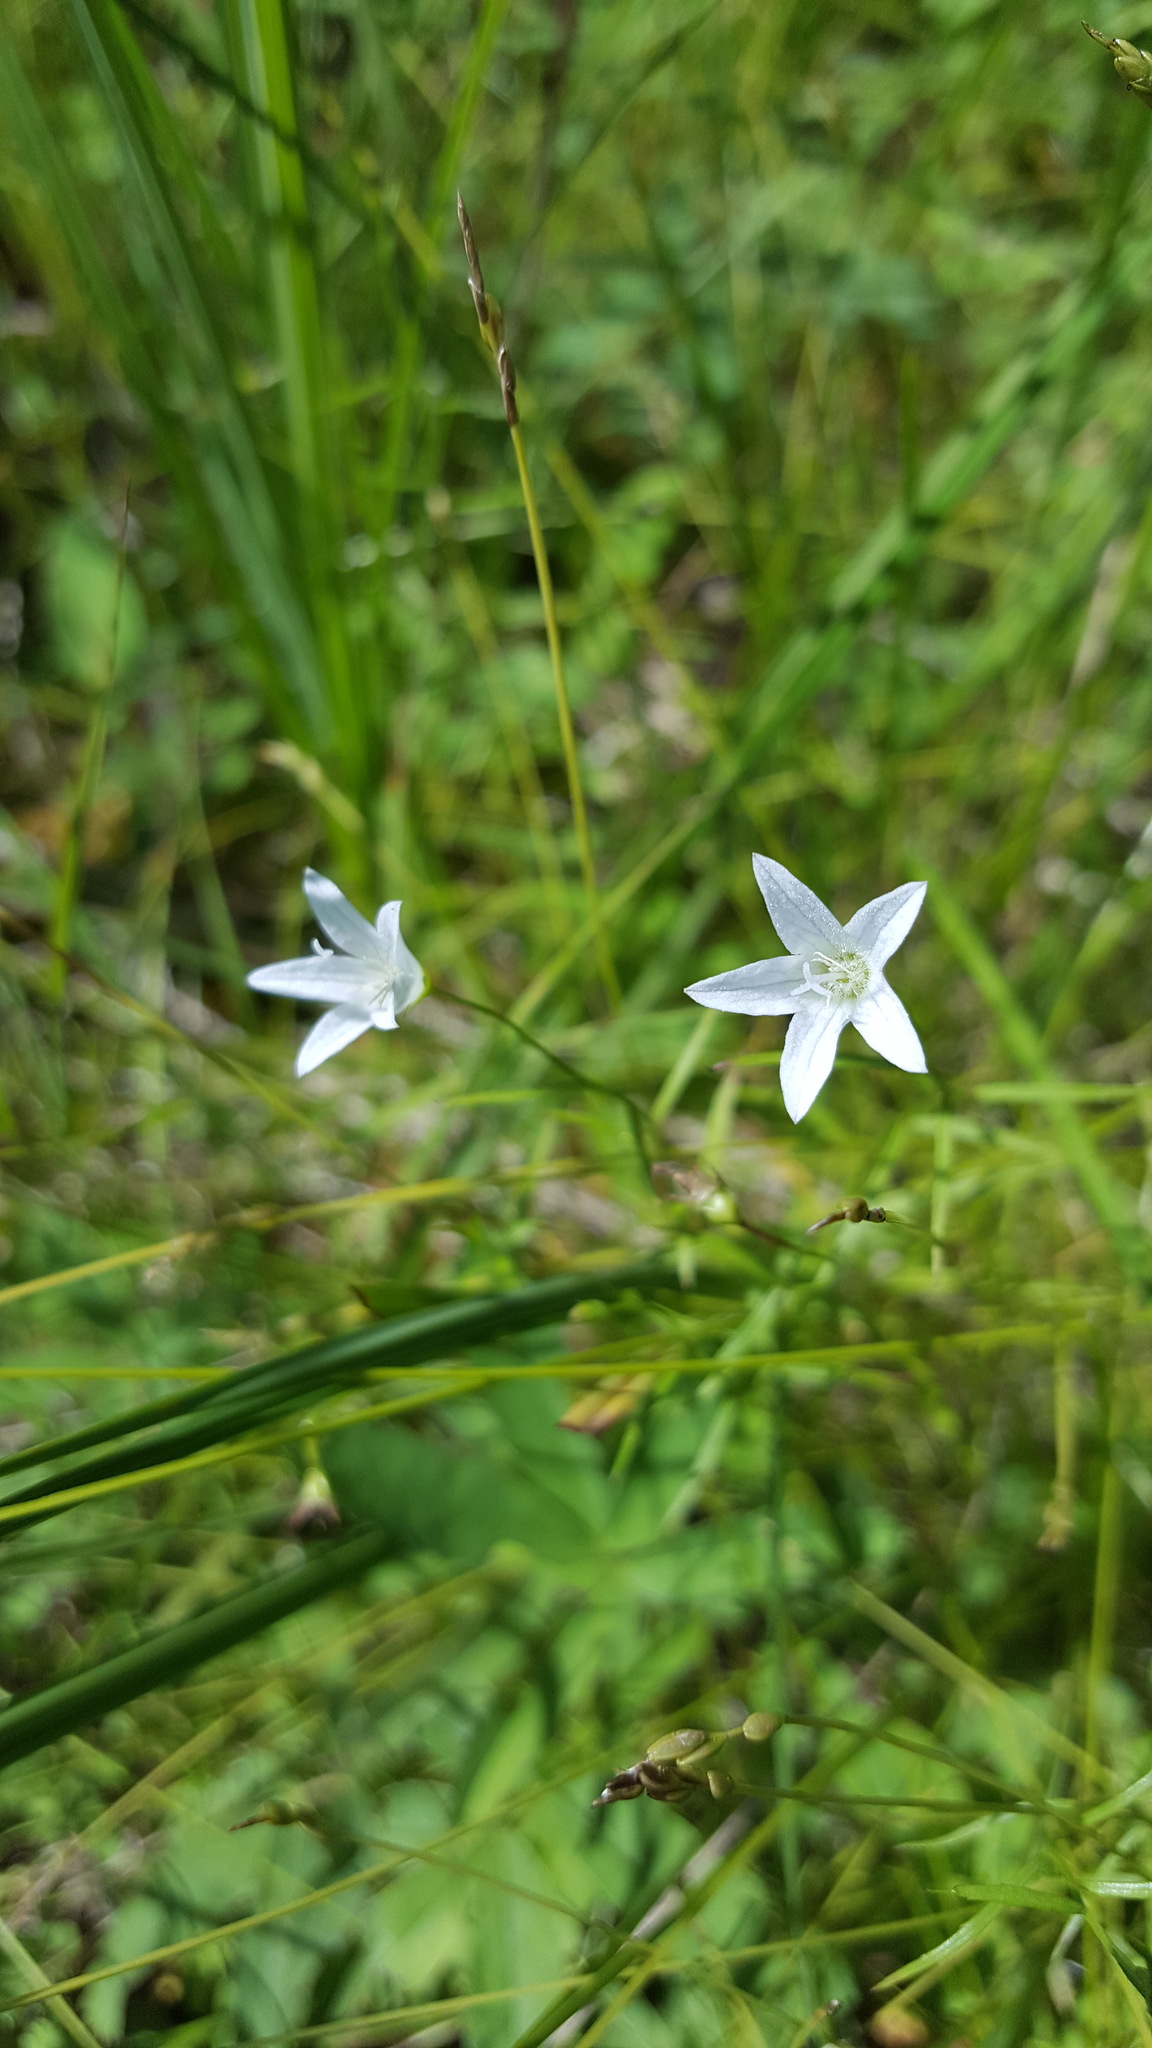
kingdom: Plantae
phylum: Tracheophyta
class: Magnoliopsida
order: Asterales
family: Campanulaceae
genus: Palustricodon
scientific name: Palustricodon aparinoides
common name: Bedstraw bellflower
